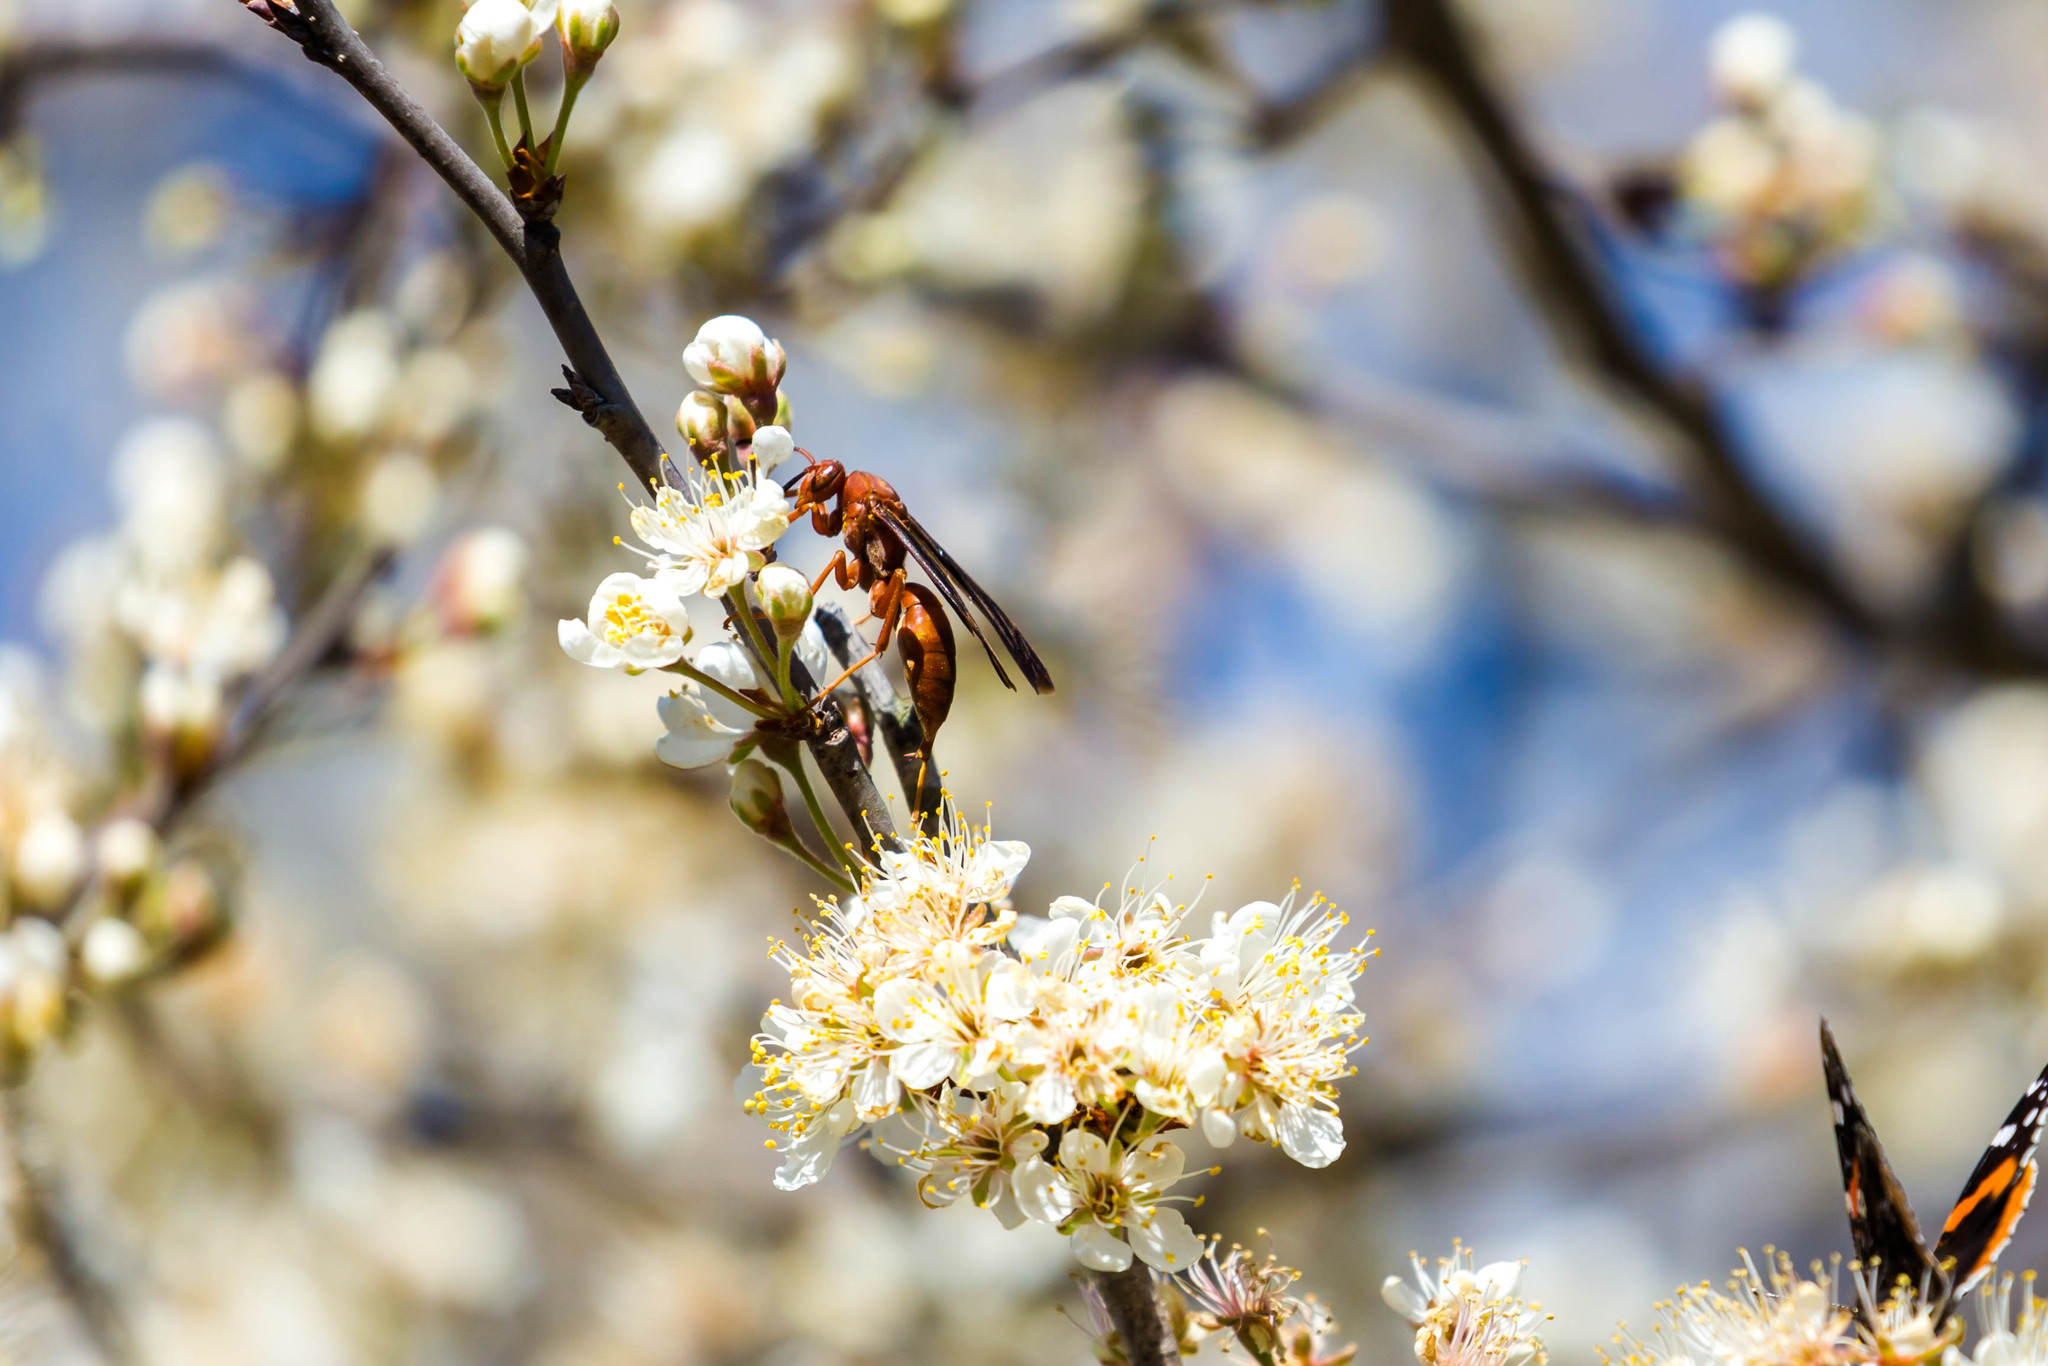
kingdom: Animalia
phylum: Arthropoda
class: Insecta
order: Hymenoptera
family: Vespidae
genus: Fuscopolistes
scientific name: Fuscopolistes
